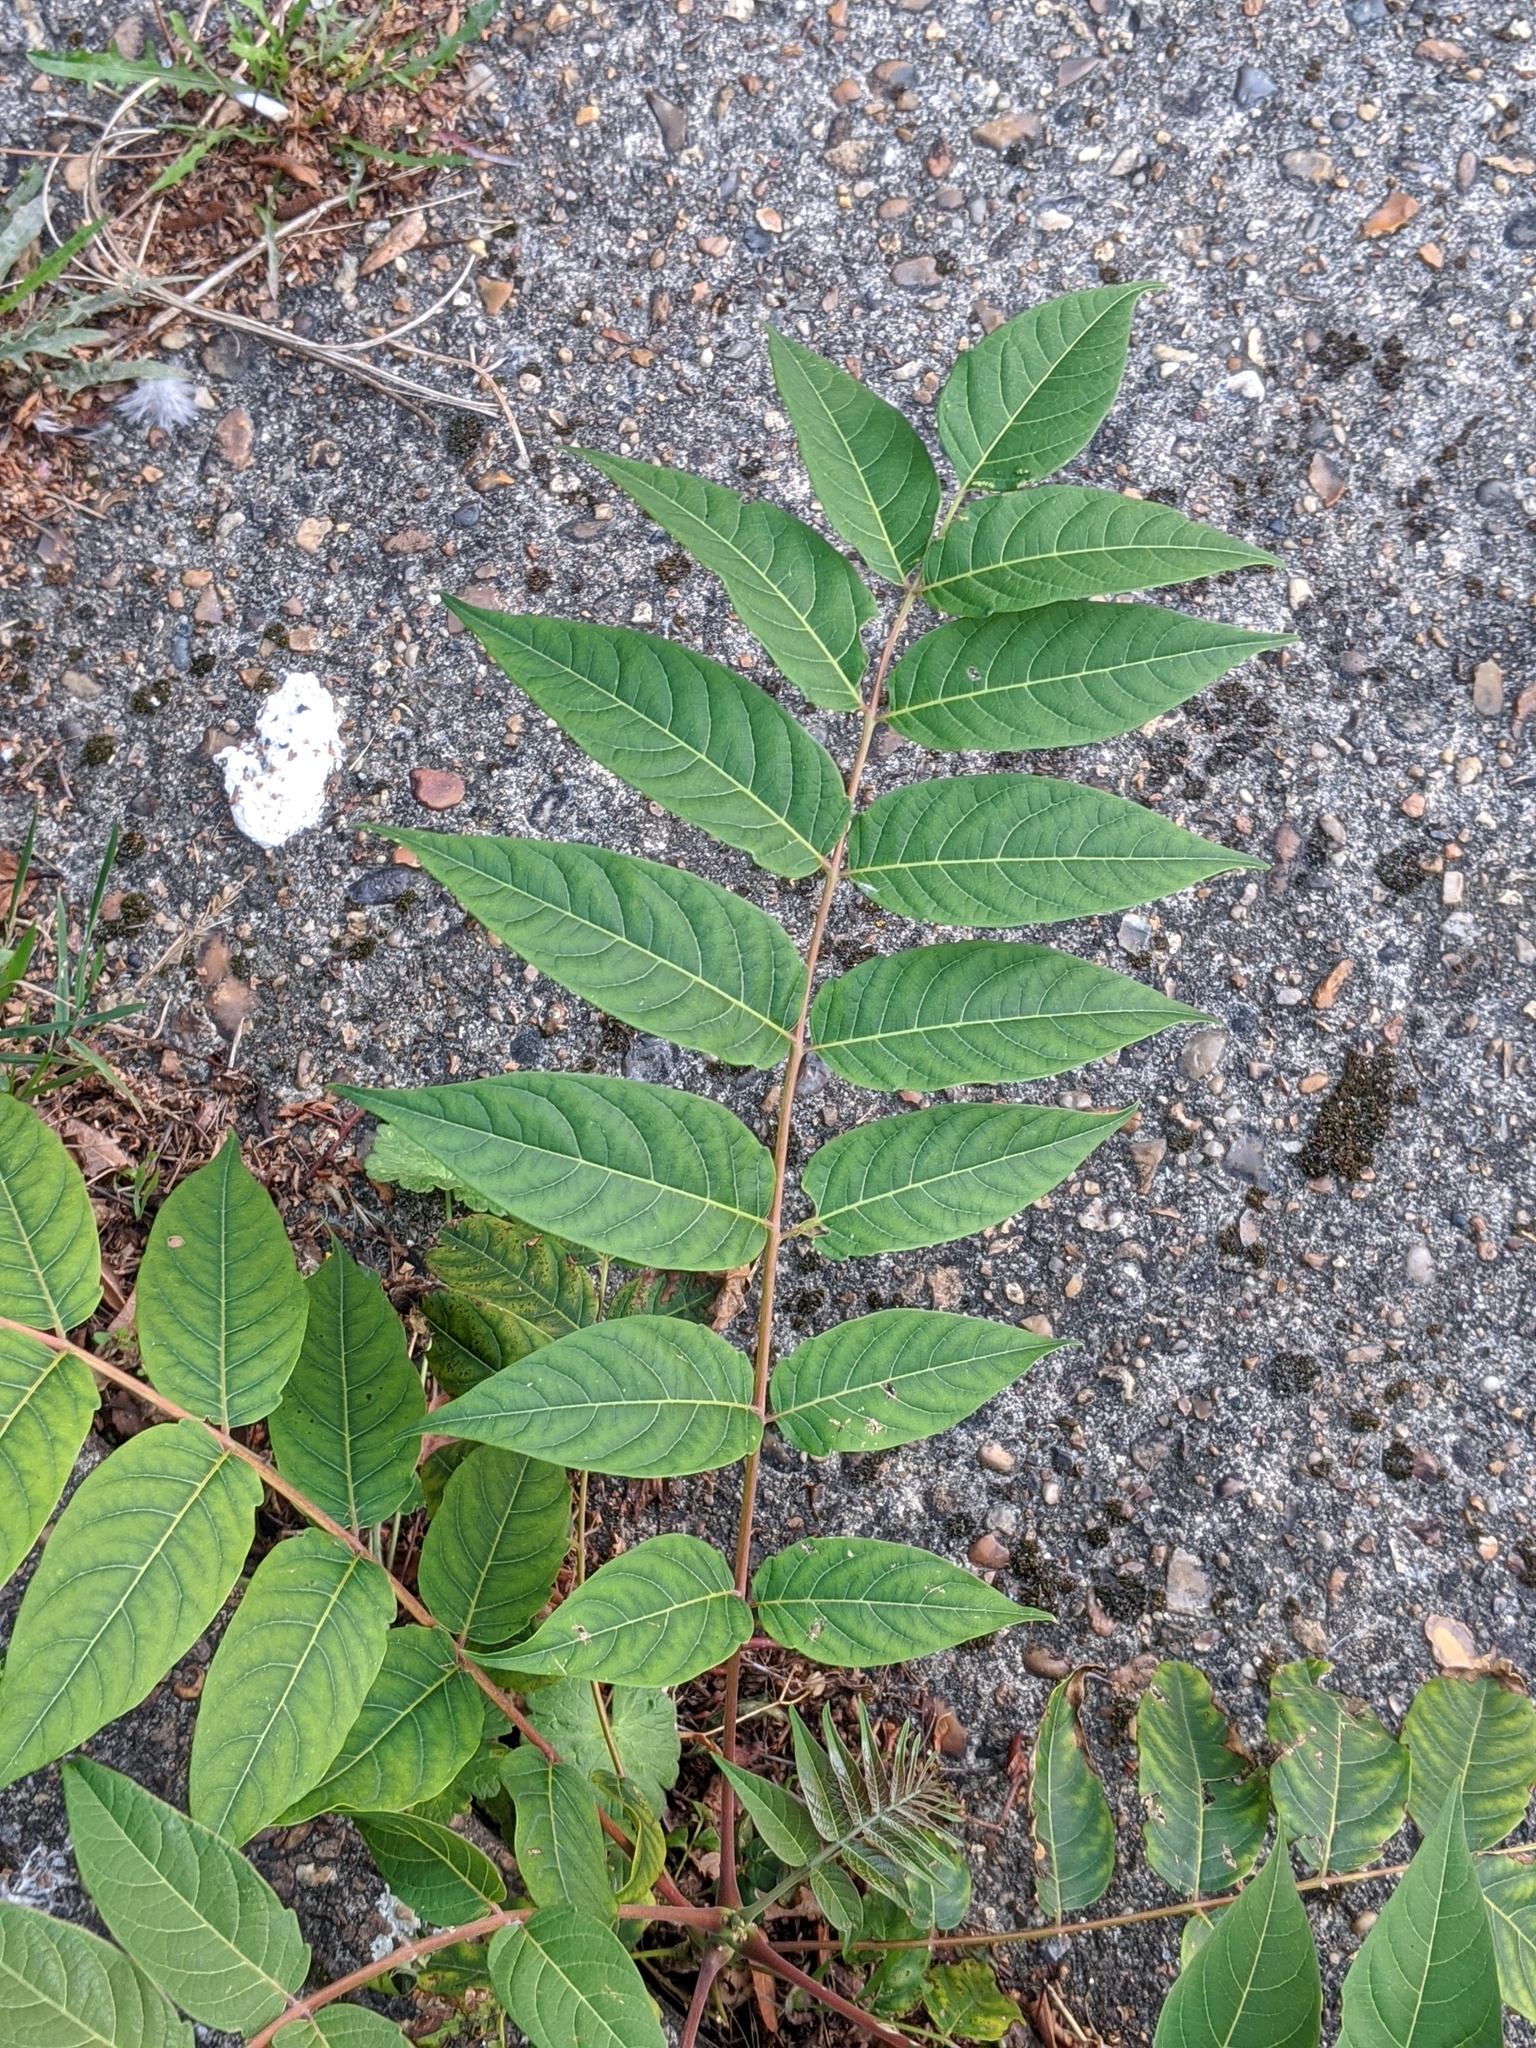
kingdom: Plantae
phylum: Tracheophyta
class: Magnoliopsida
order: Sapindales
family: Simaroubaceae
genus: Ailanthus
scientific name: Ailanthus altissima
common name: Tree-of-heaven
